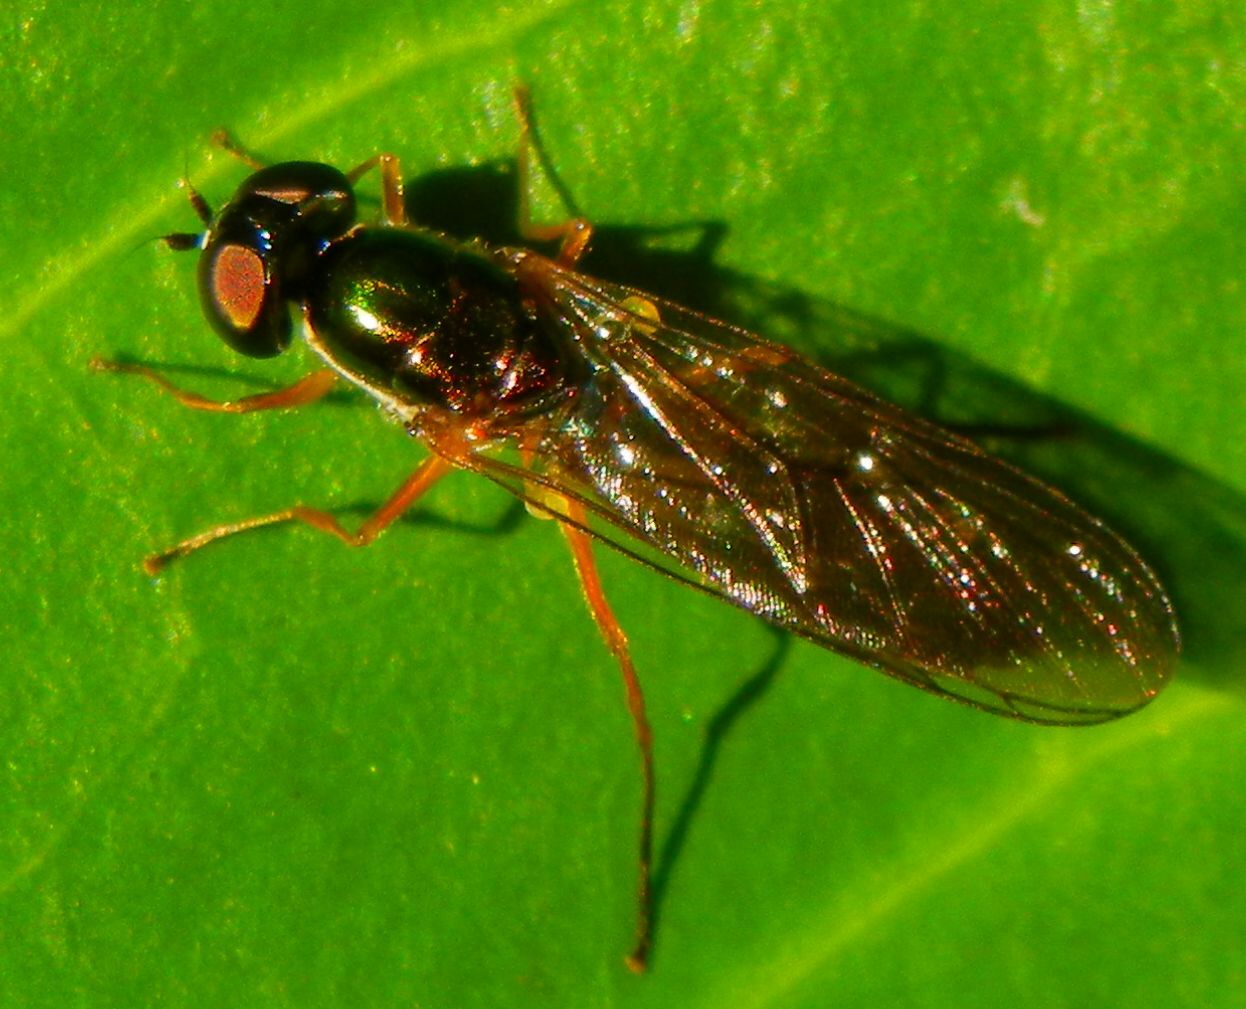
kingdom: Animalia
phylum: Arthropoda
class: Insecta
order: Diptera
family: Stratiomyidae
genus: Sargus
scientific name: Sargus bipunctatus
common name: Twin-spot centurion
